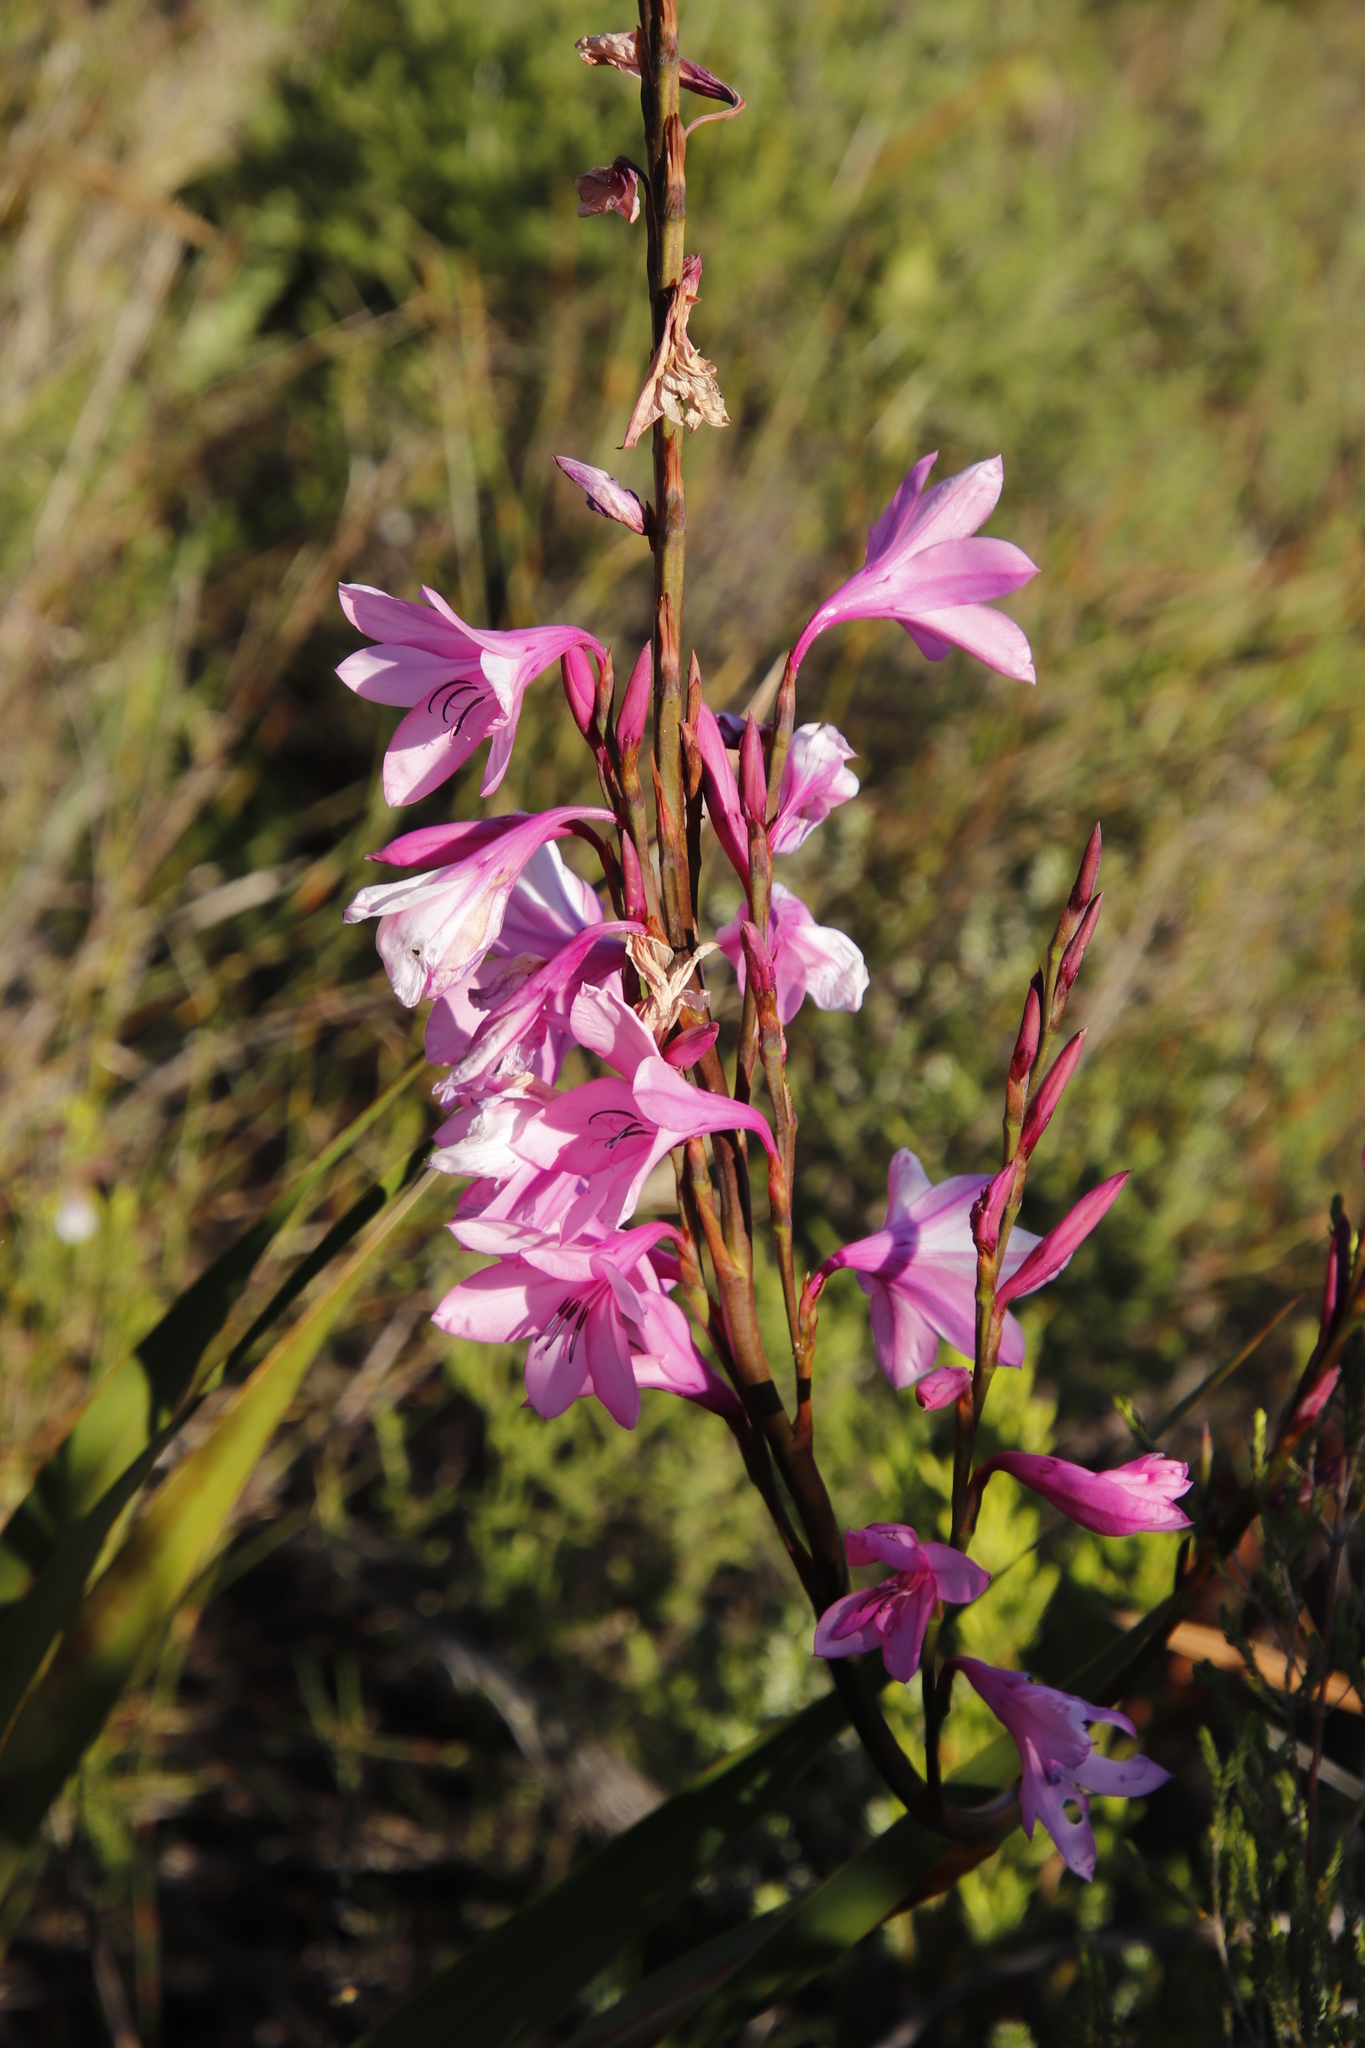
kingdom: Plantae
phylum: Tracheophyta
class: Liliopsida
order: Asparagales
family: Iridaceae
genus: Watsonia
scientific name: Watsonia borbonica
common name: Bugle-lily
